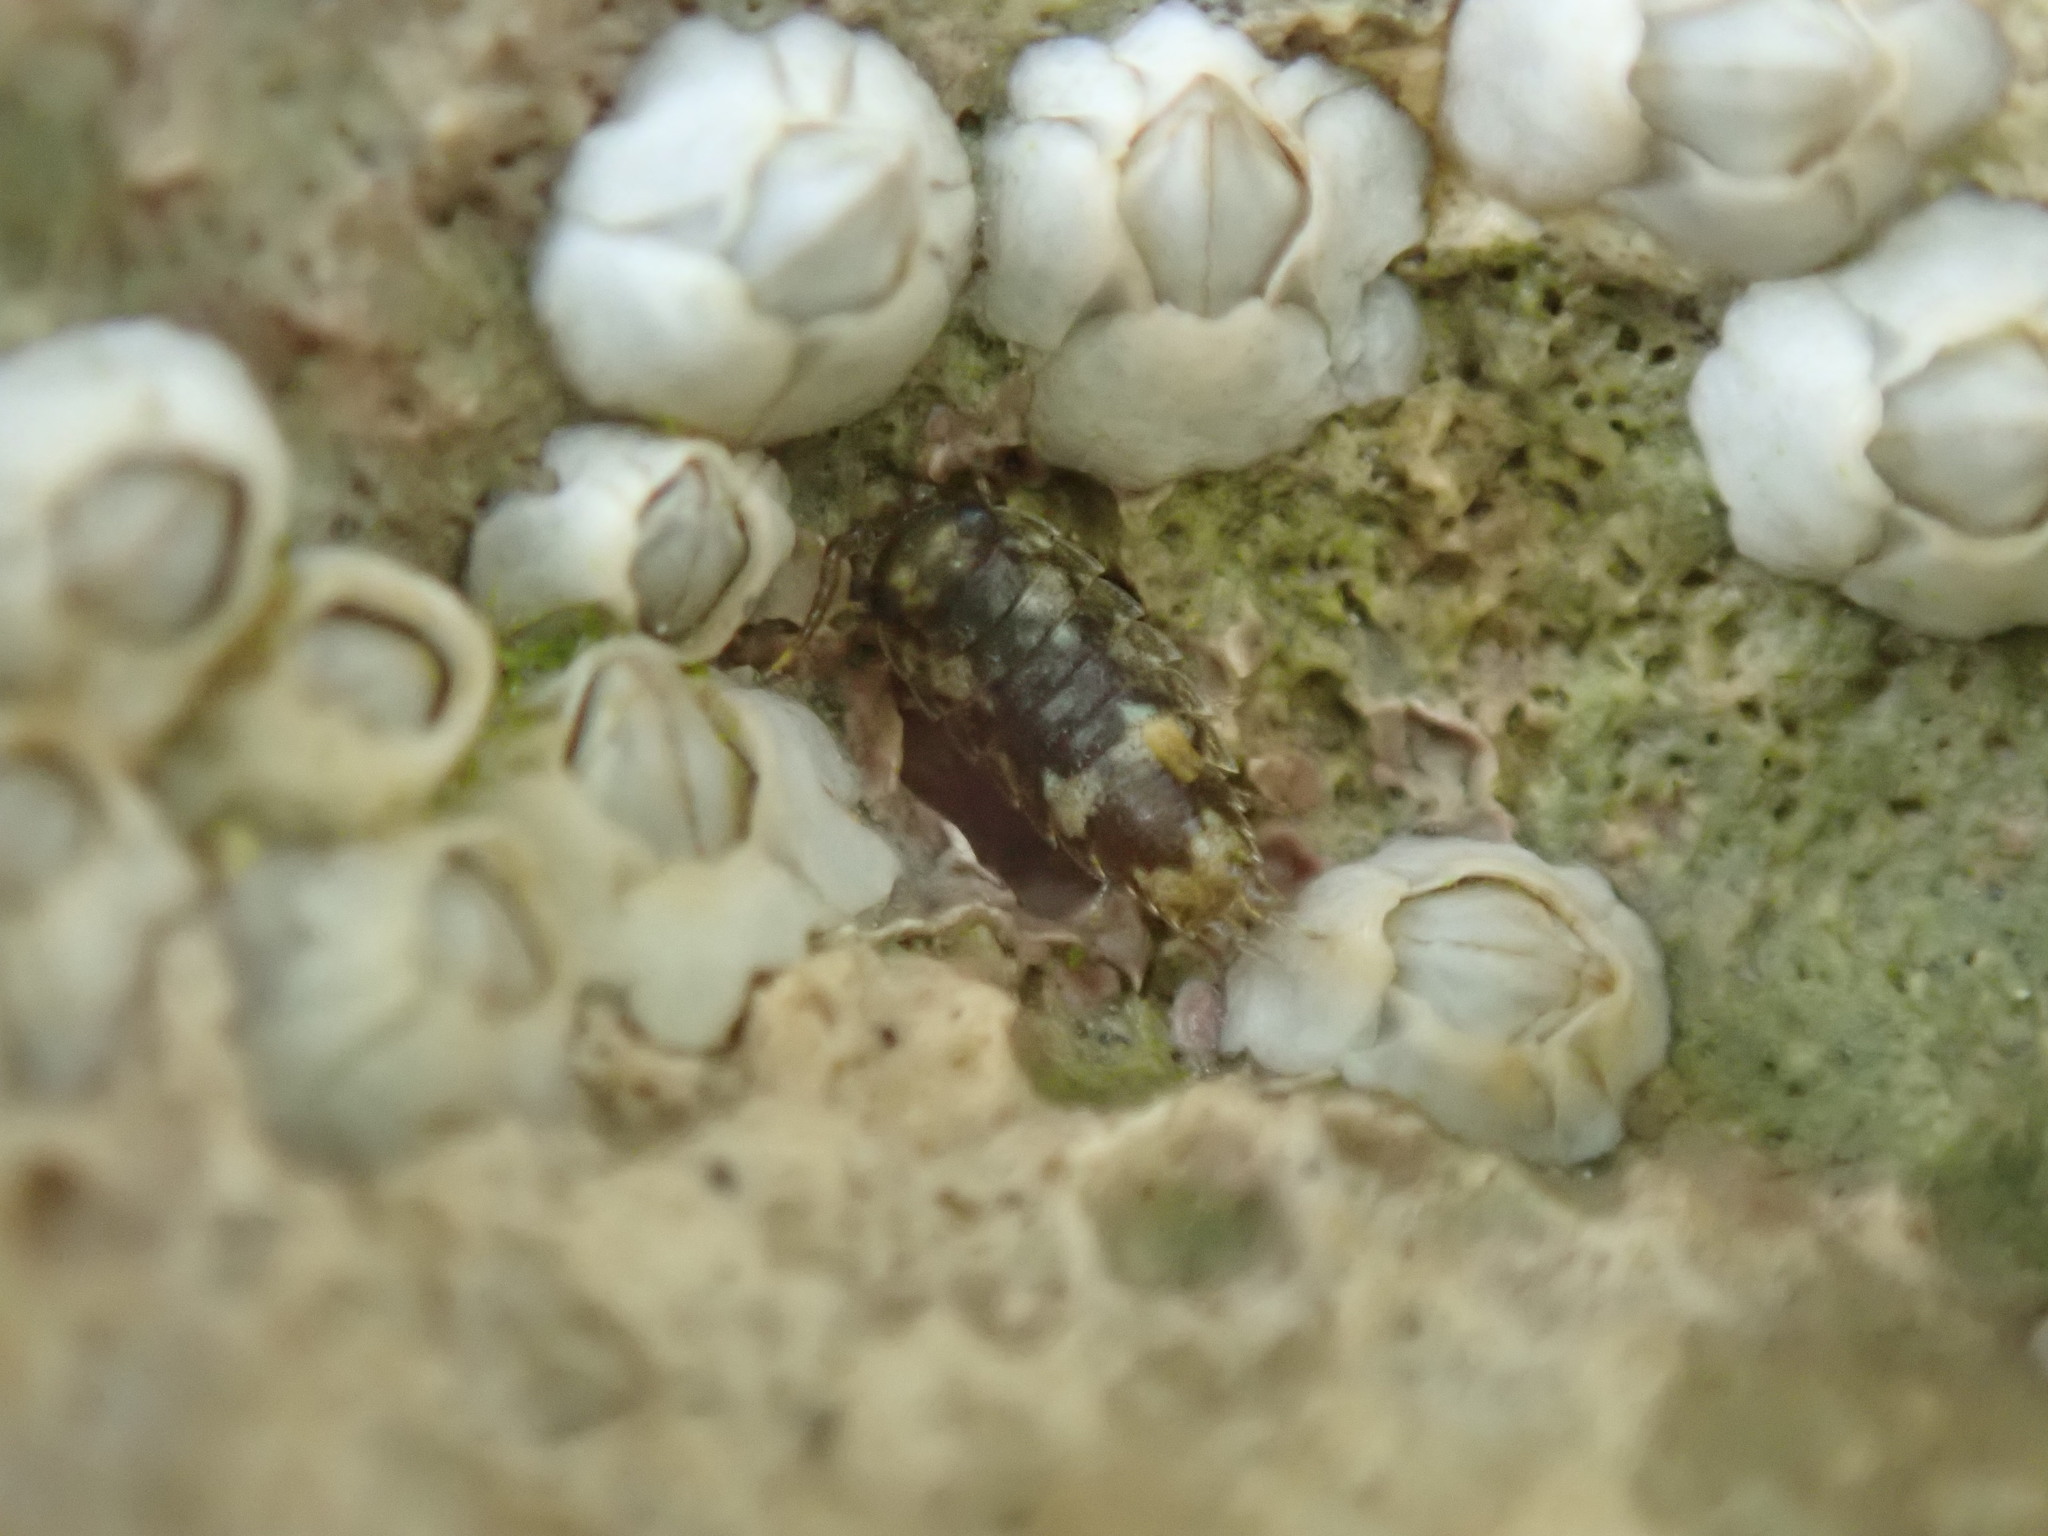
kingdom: Animalia
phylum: Arthropoda
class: Malacostraca
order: Isopoda
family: Ligiidae
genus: Ligia
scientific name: Ligia oceanica
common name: Sea slater
